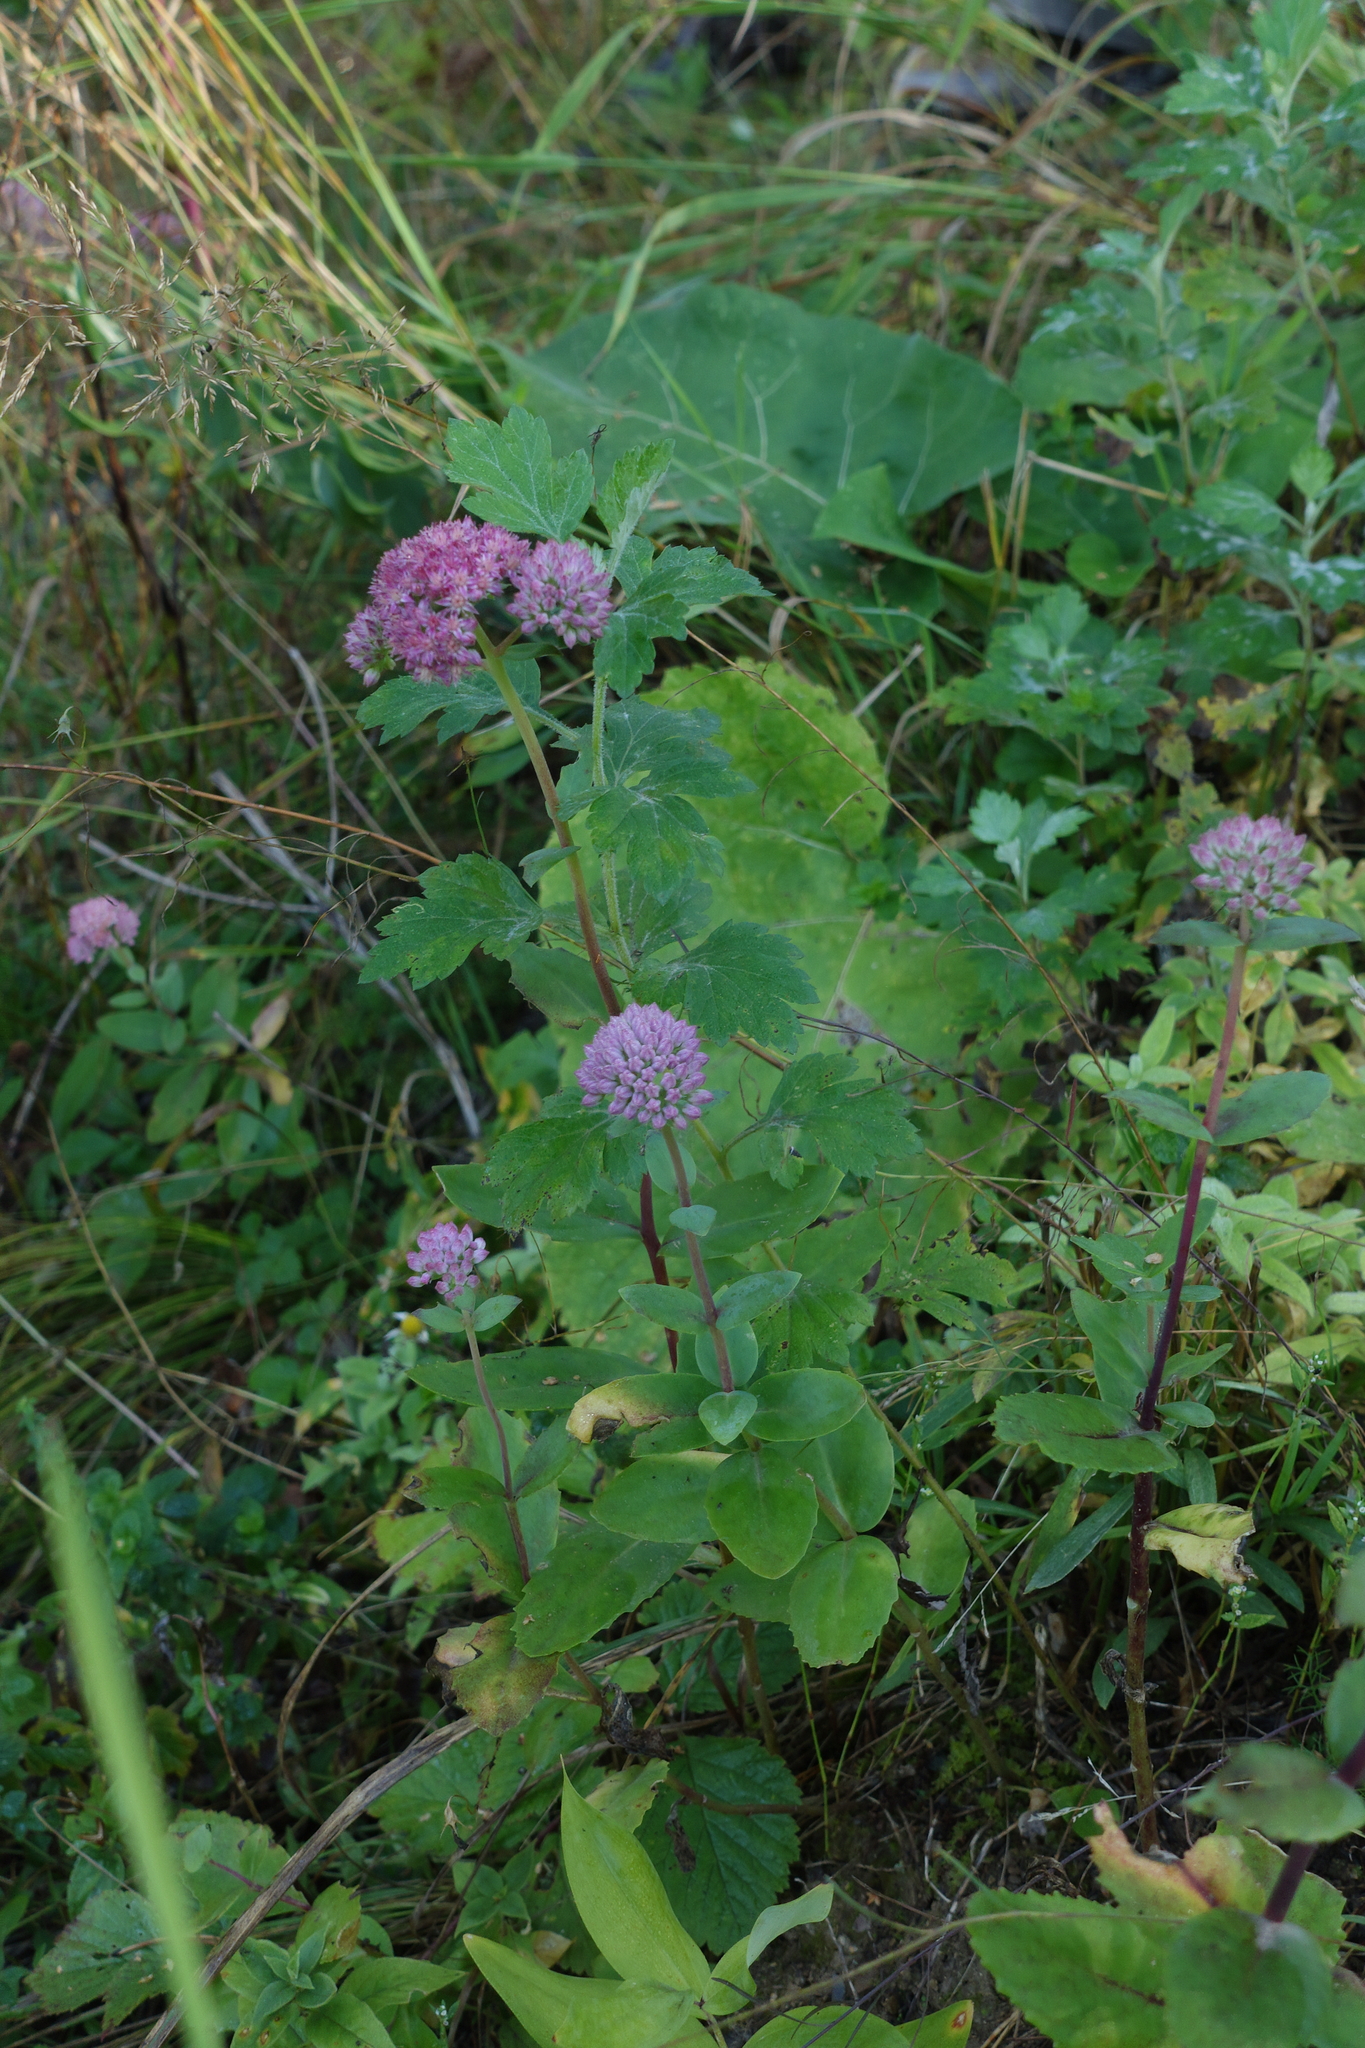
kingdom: Plantae
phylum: Tracheophyta
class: Magnoliopsida
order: Saxifragales
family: Crassulaceae
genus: Hylotelephium
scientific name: Hylotelephium telephium
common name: Live-forever
